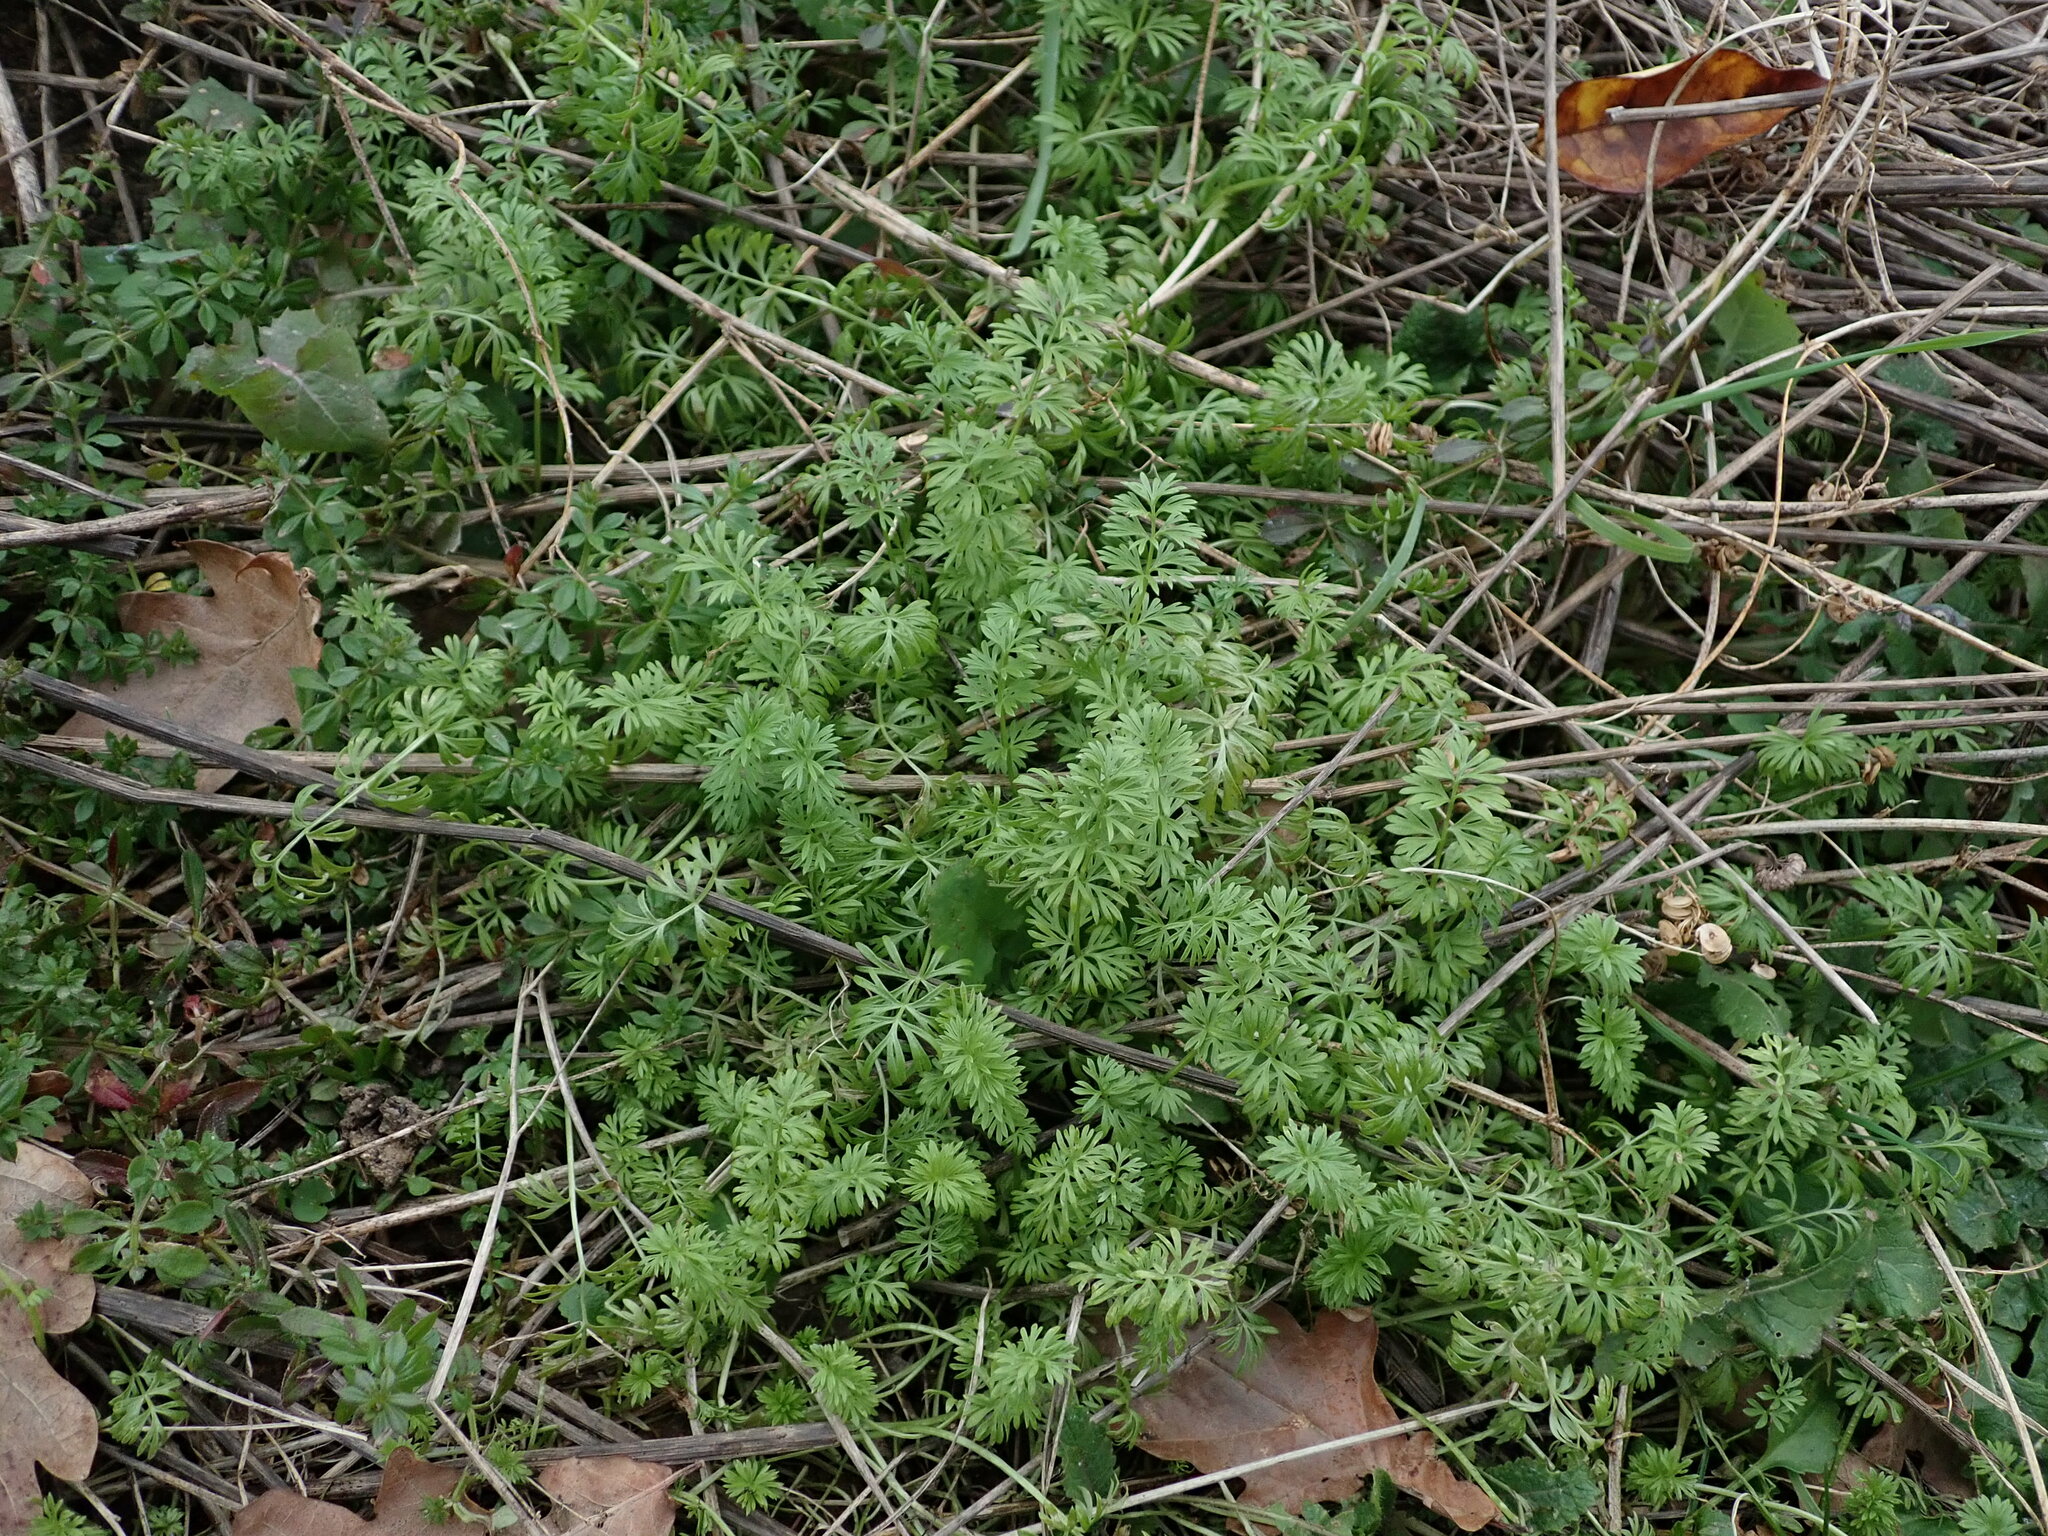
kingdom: Plantae
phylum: Tracheophyta
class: Magnoliopsida
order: Ranunculales
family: Ranunculaceae
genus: Nigella
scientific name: Nigella damascena
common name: Love-in-a-mist
